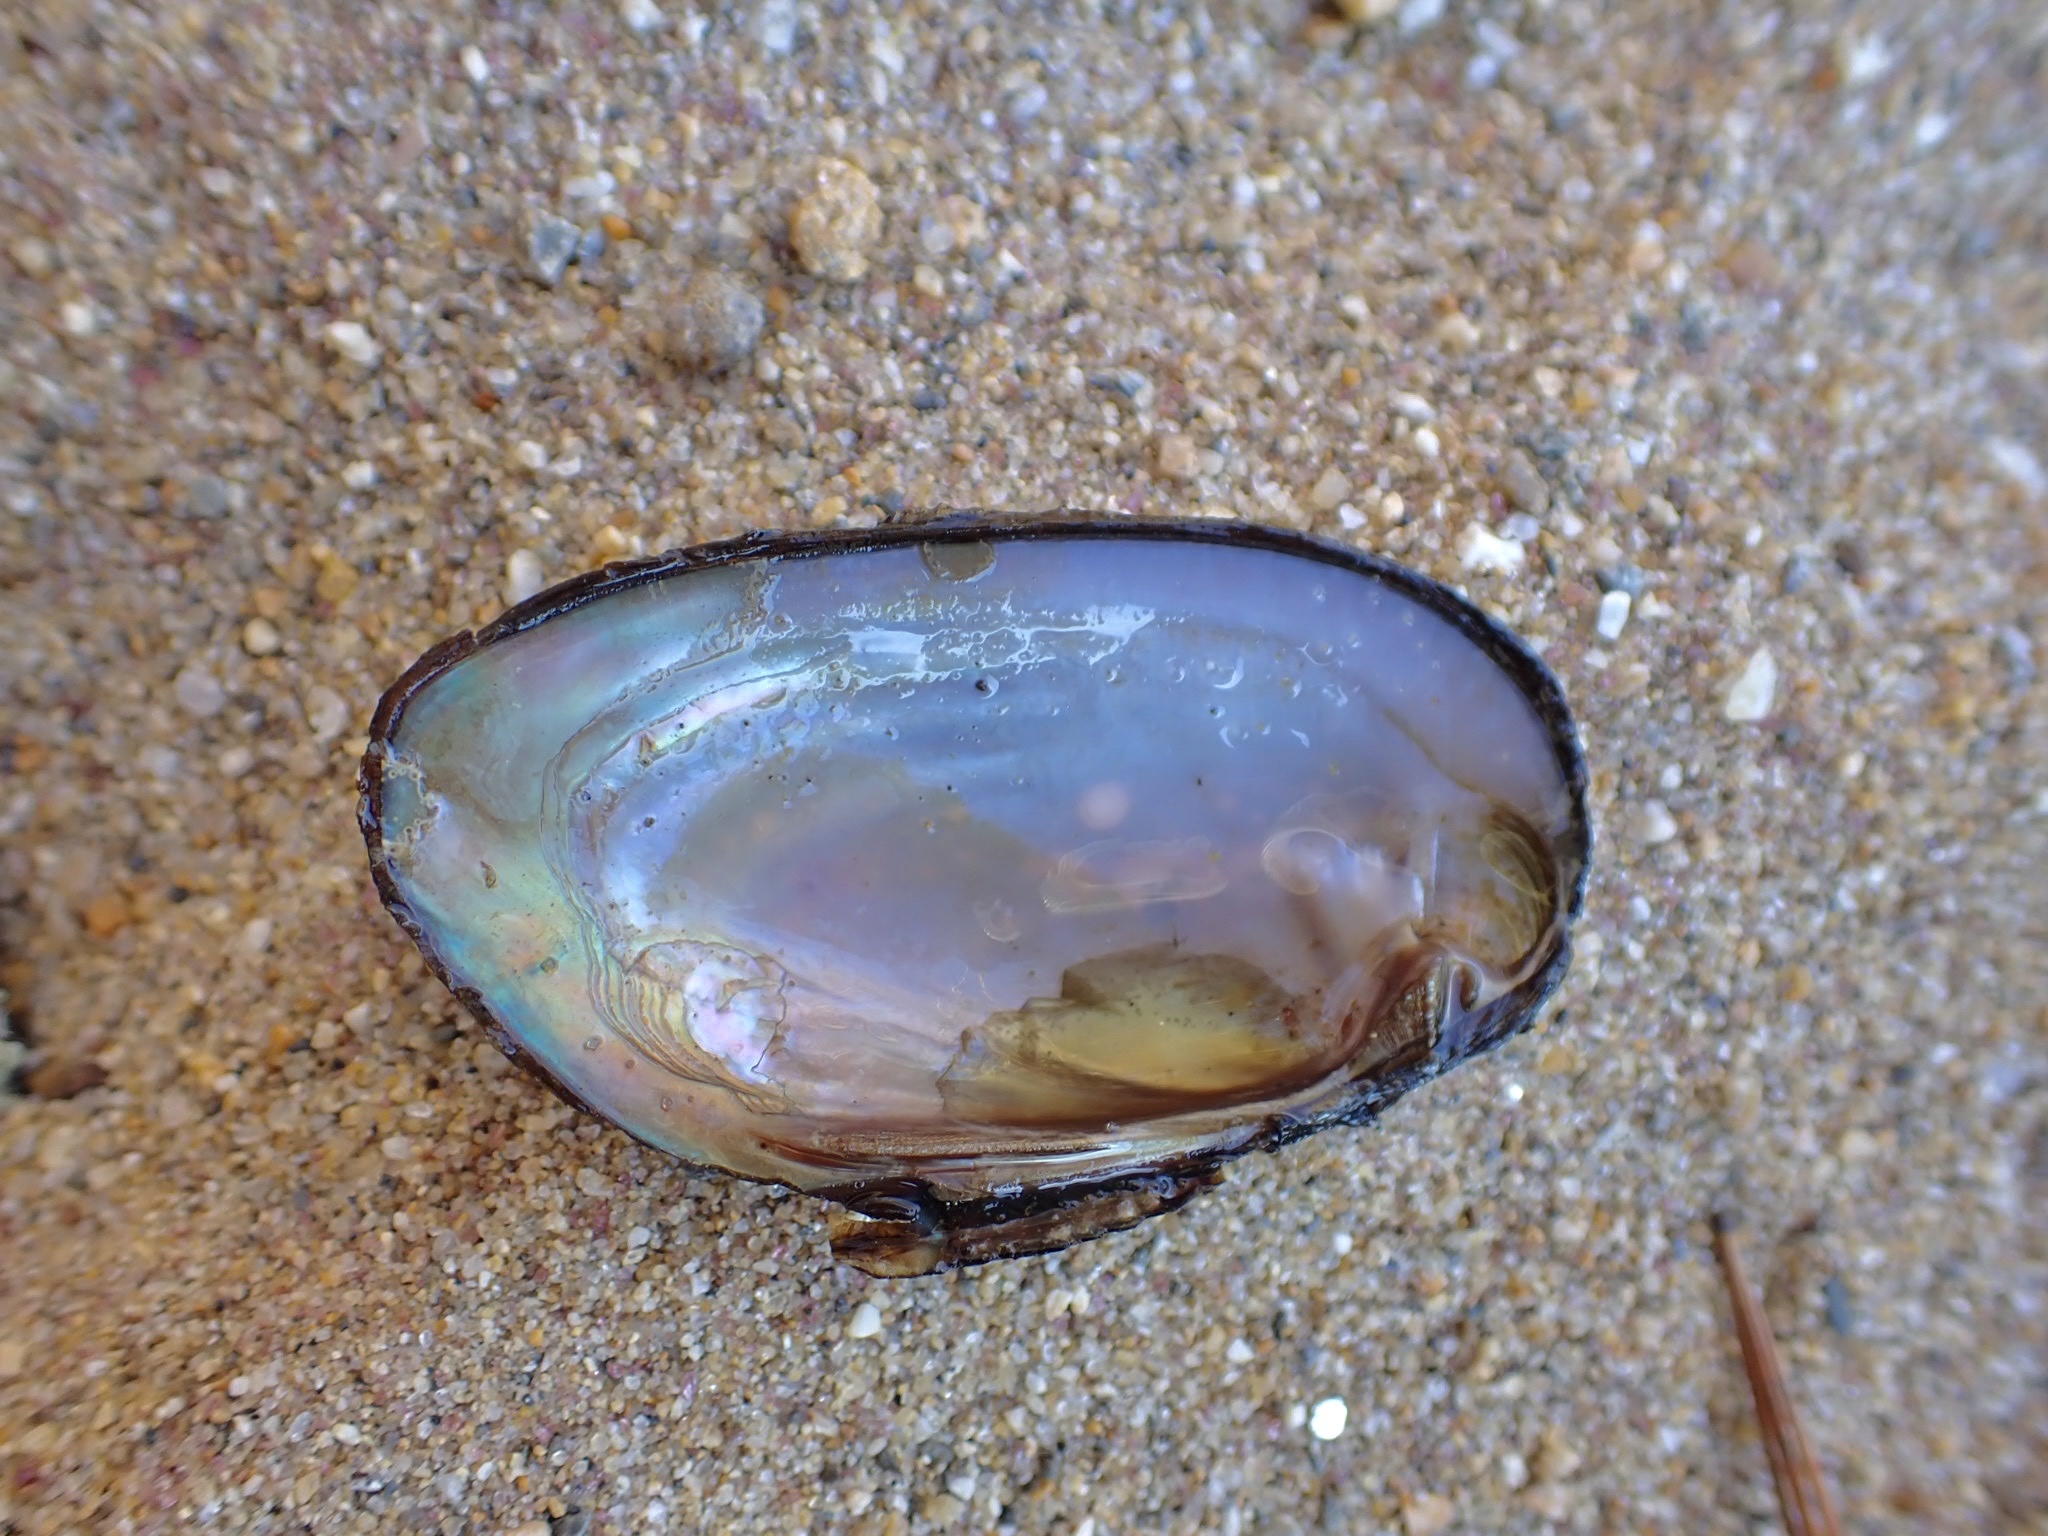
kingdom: Animalia
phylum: Mollusca
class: Bivalvia
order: Unionida
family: Unionidae
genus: Elliptio
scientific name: Elliptio complanata
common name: Eastern elliptio
